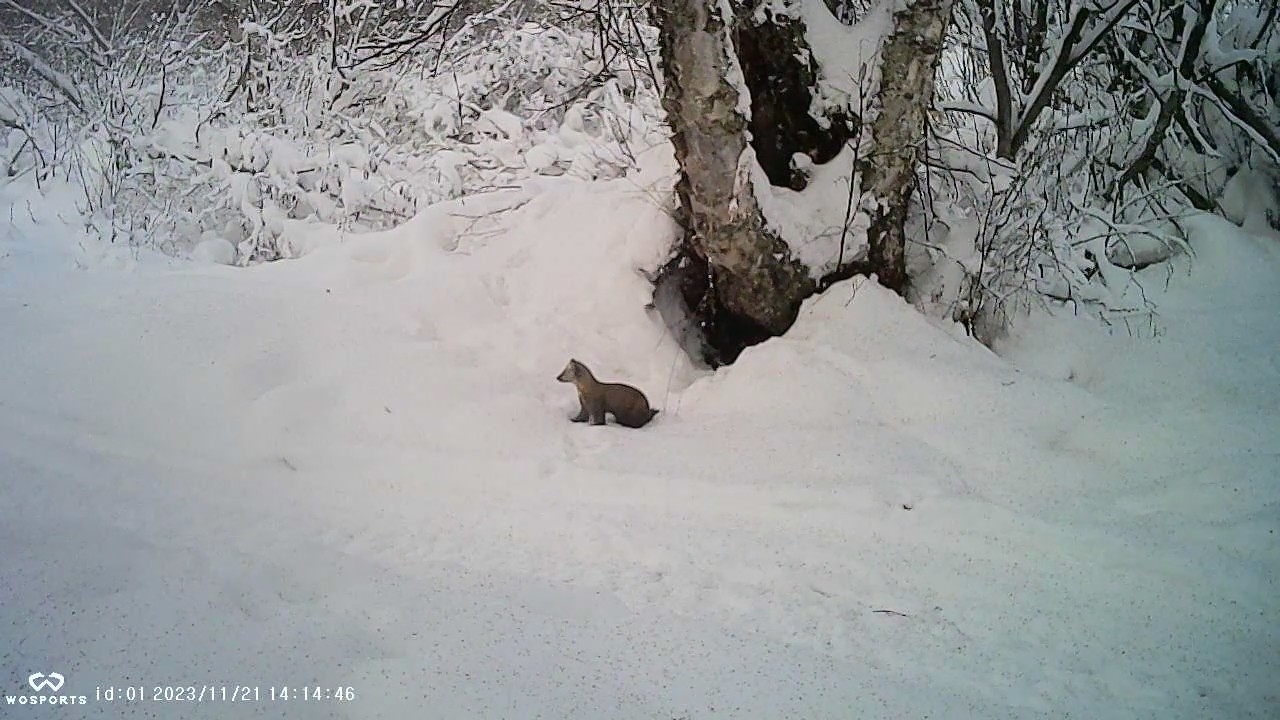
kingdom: Animalia
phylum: Chordata
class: Mammalia
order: Carnivora
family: Mustelidae
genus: Martes
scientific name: Martes americana
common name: American marten
